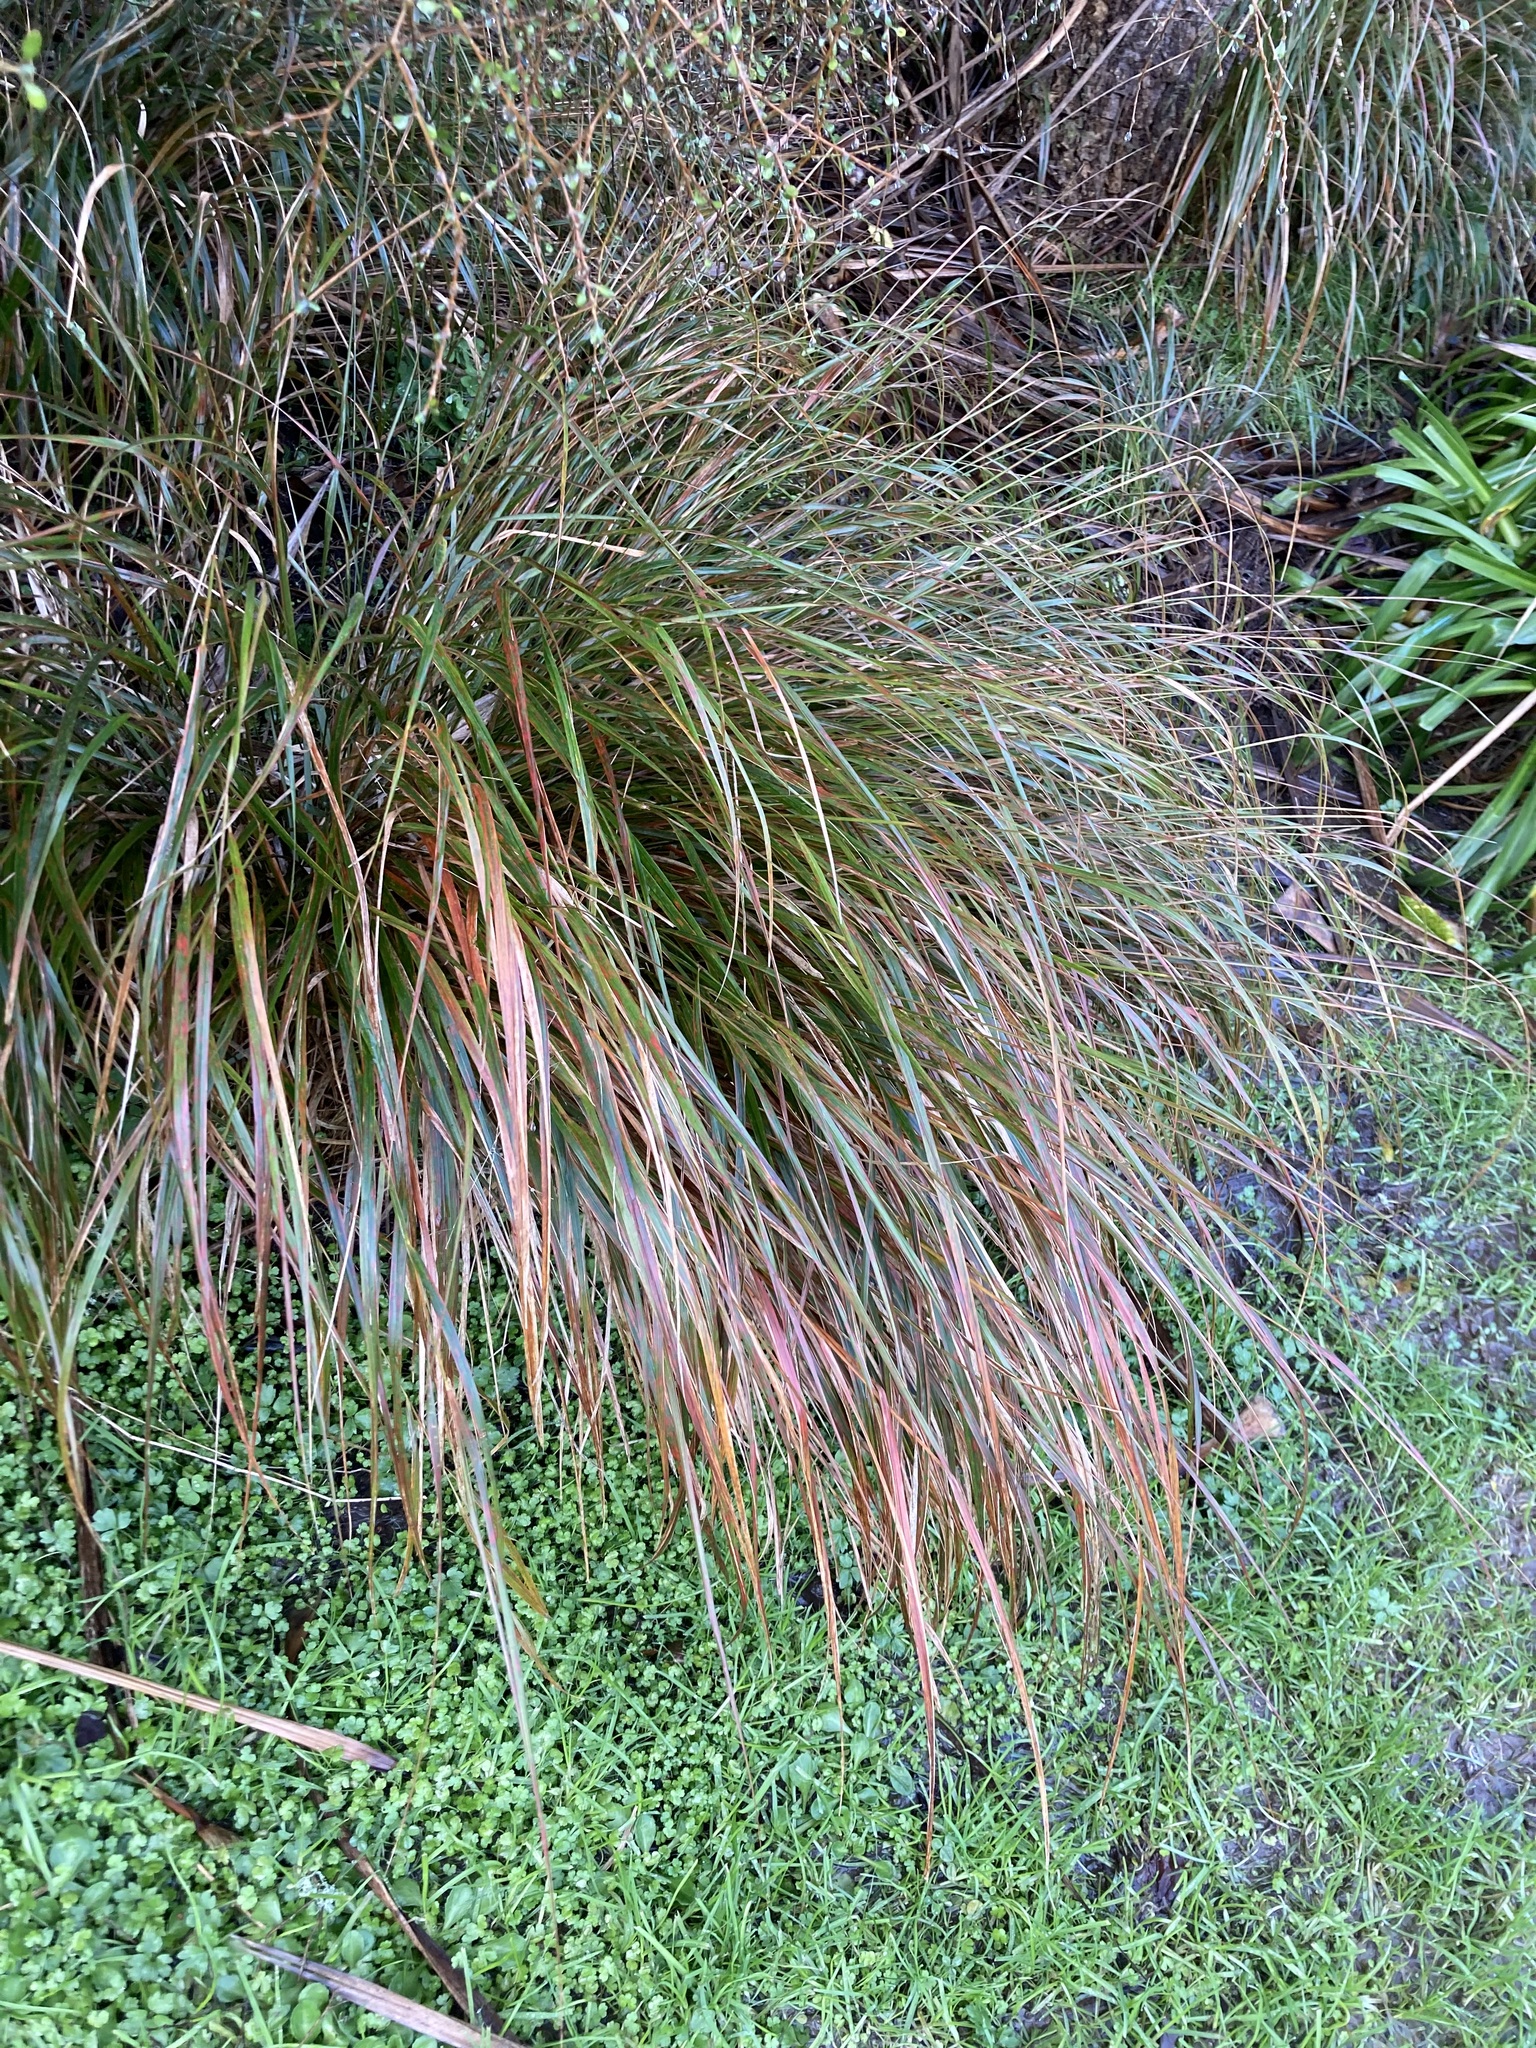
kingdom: Plantae
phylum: Tracheophyta
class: Liliopsida
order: Poales
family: Poaceae
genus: Anemanthele
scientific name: Anemanthele lessoniana
